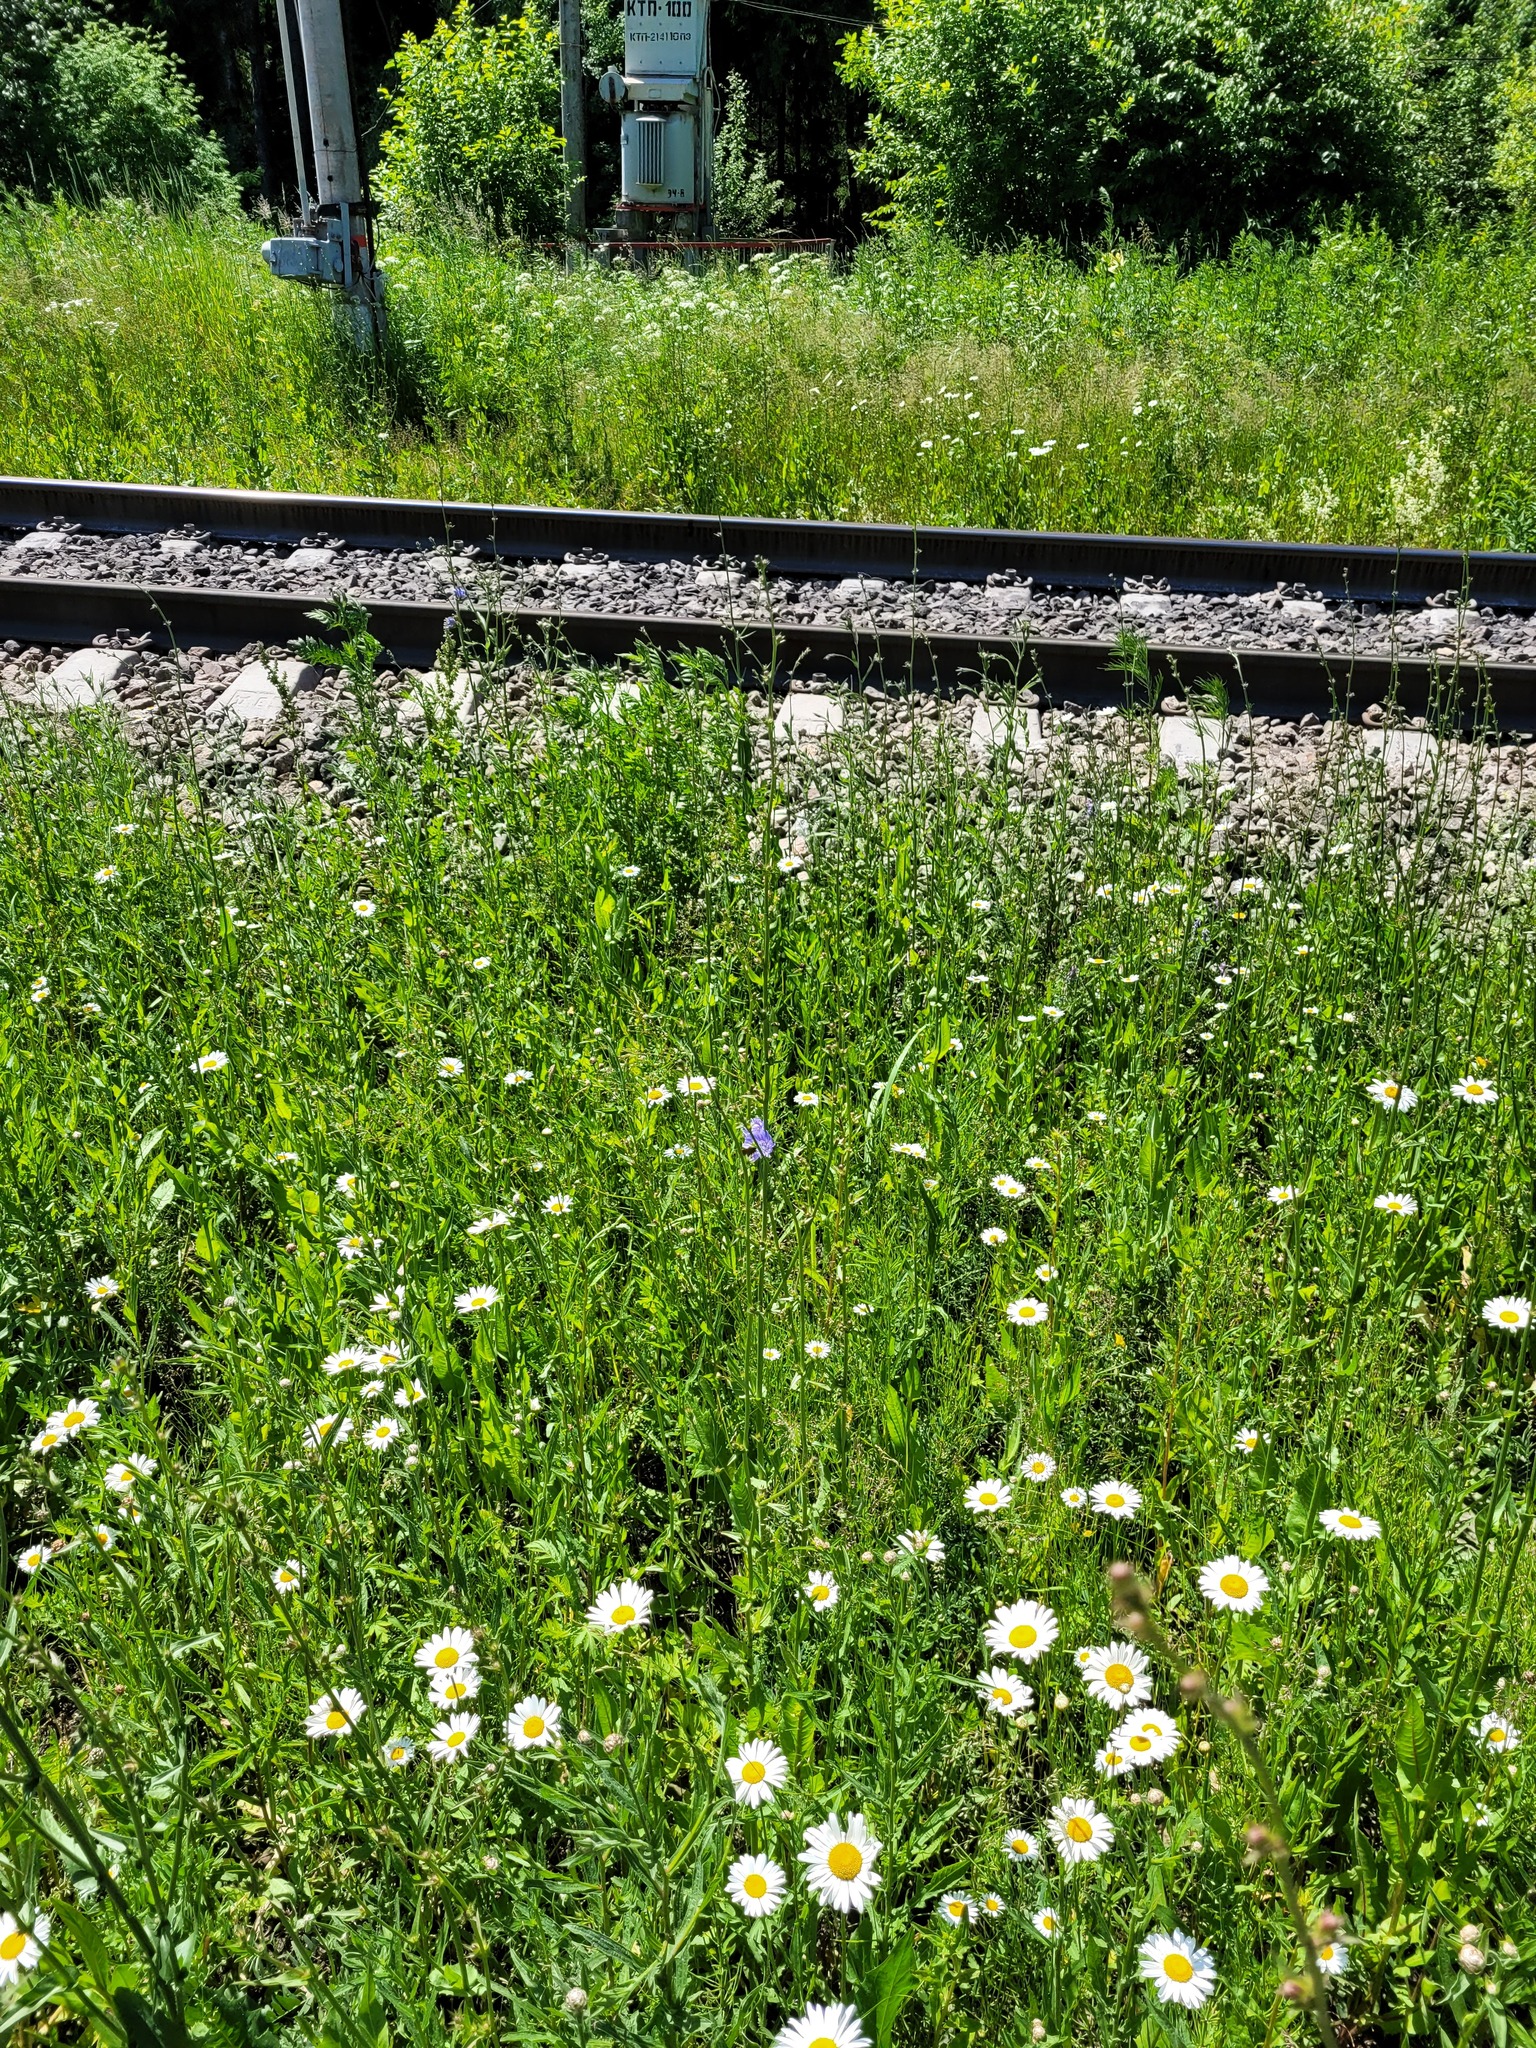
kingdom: Plantae
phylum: Tracheophyta
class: Magnoliopsida
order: Asterales
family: Asteraceae
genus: Cichorium
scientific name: Cichorium intybus
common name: Chicory
